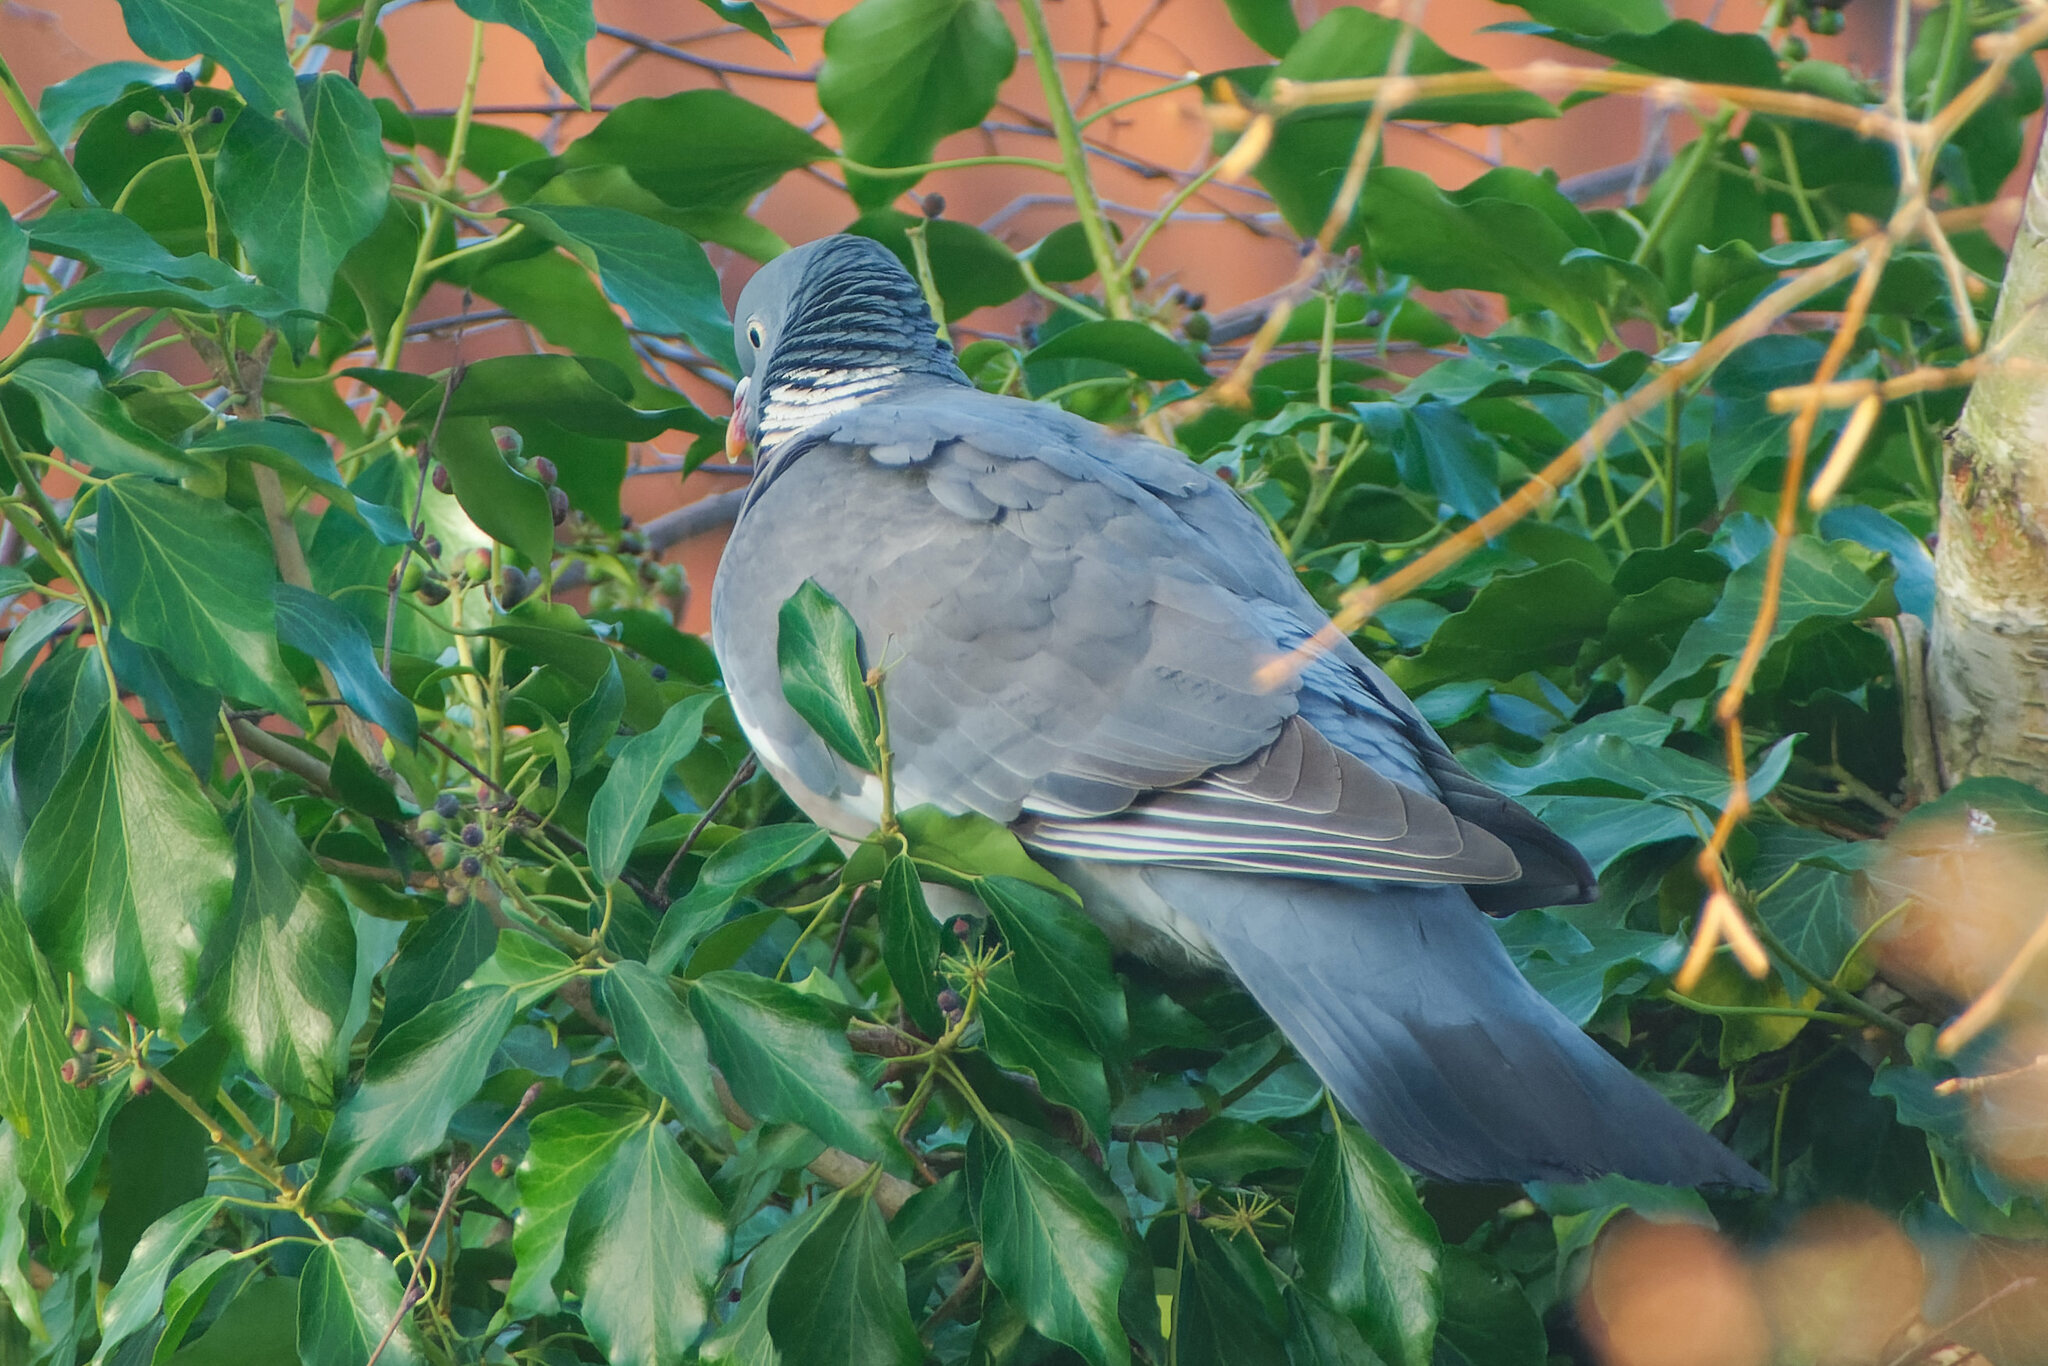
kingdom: Animalia
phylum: Chordata
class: Aves
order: Columbiformes
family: Columbidae
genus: Columba
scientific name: Columba palumbus
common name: Common wood pigeon
